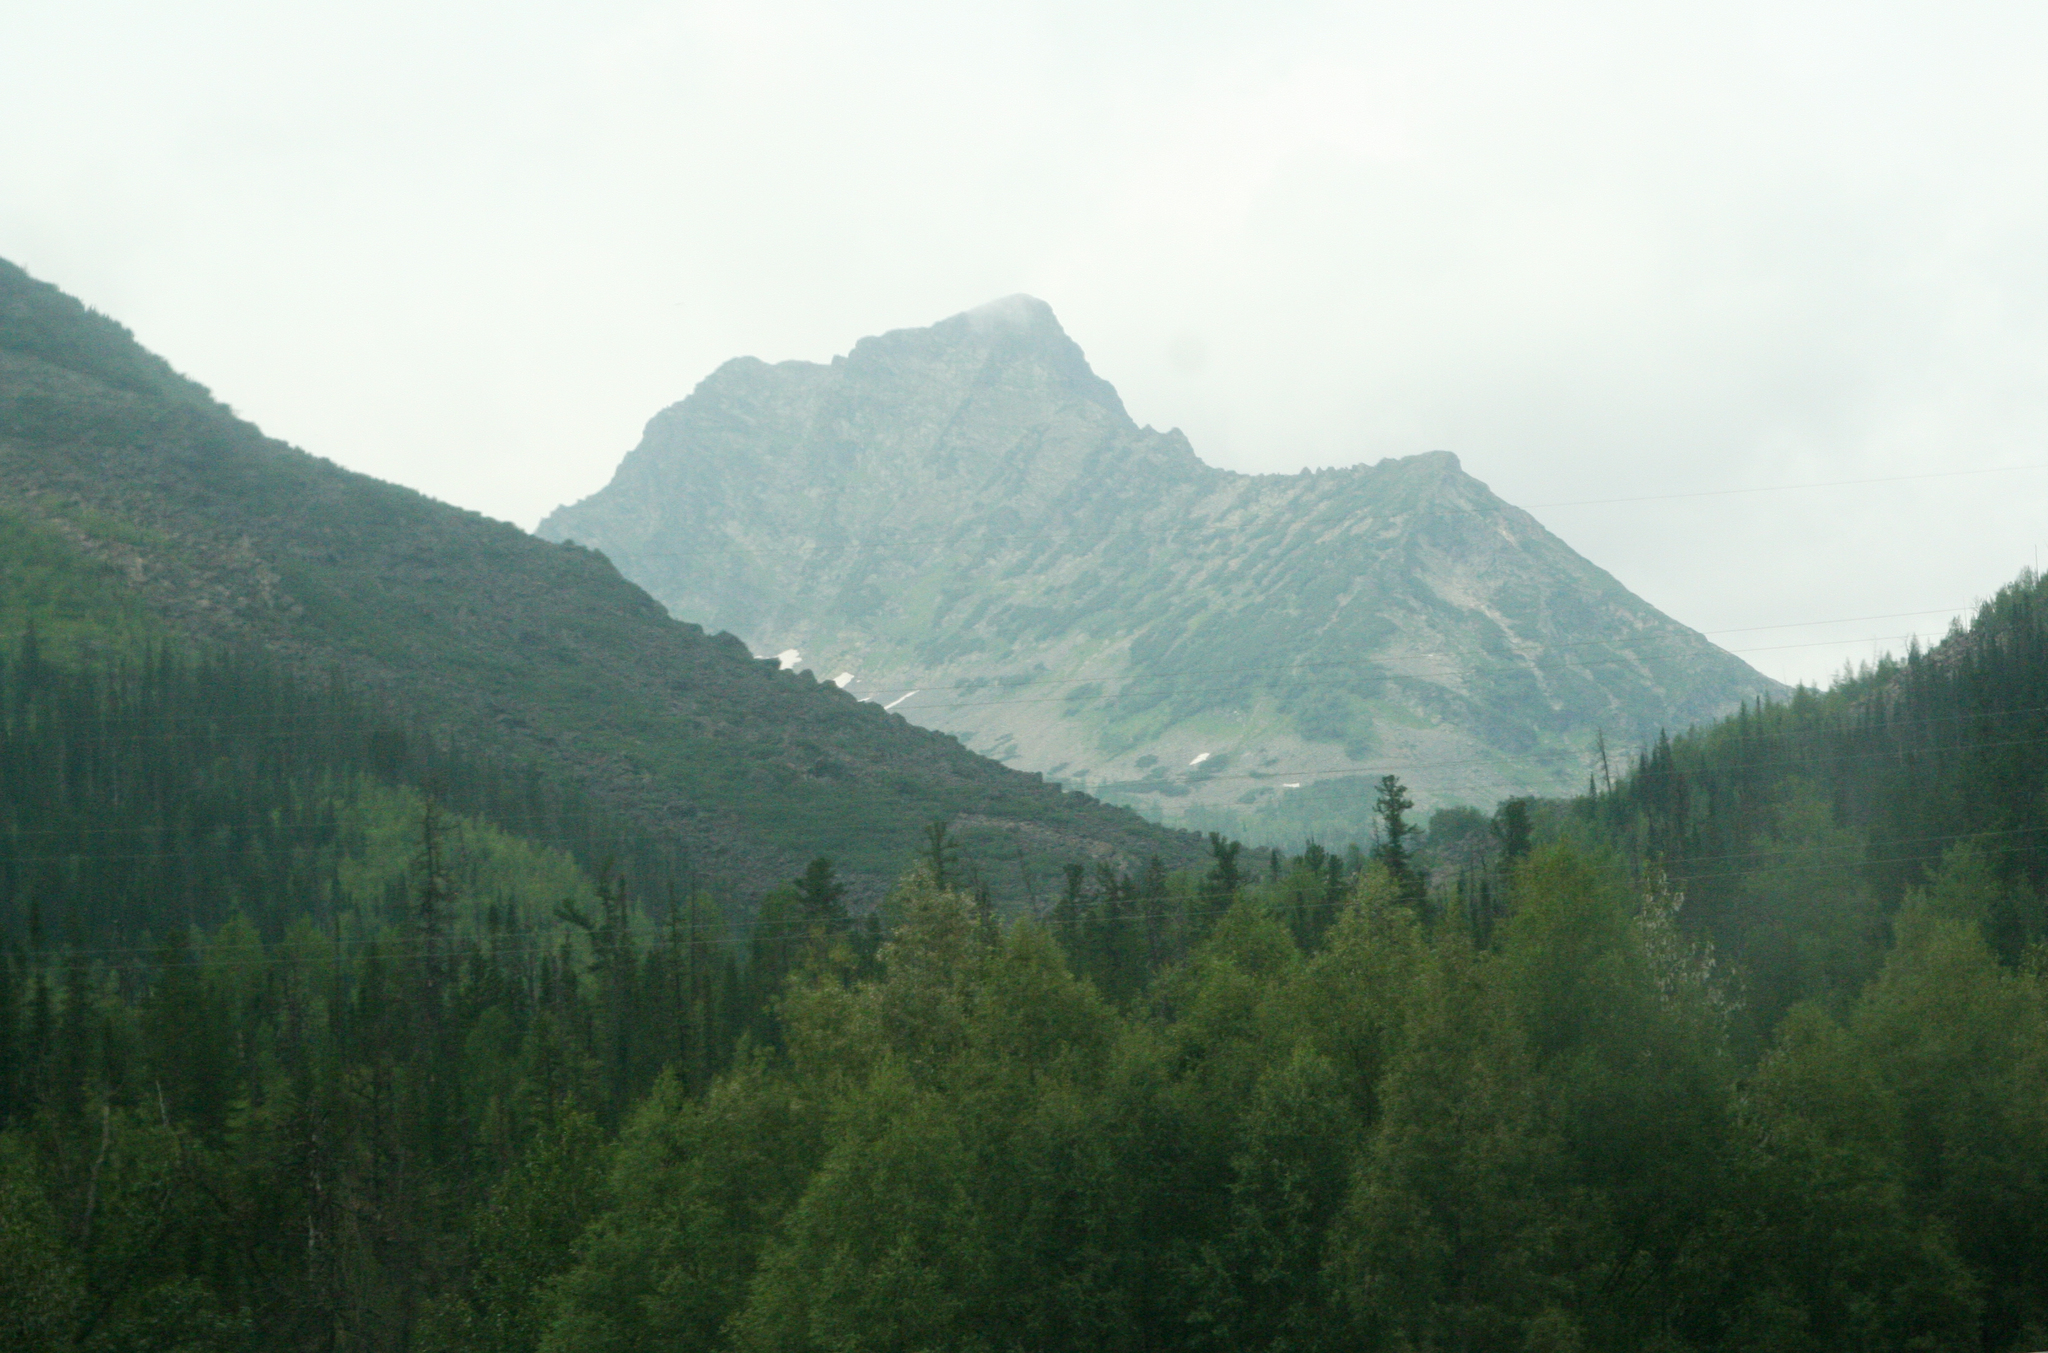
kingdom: Plantae
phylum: Tracheophyta
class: Pinopsida
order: Pinales
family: Pinaceae
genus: Picea
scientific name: Picea obovata
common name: Siberian spruce
